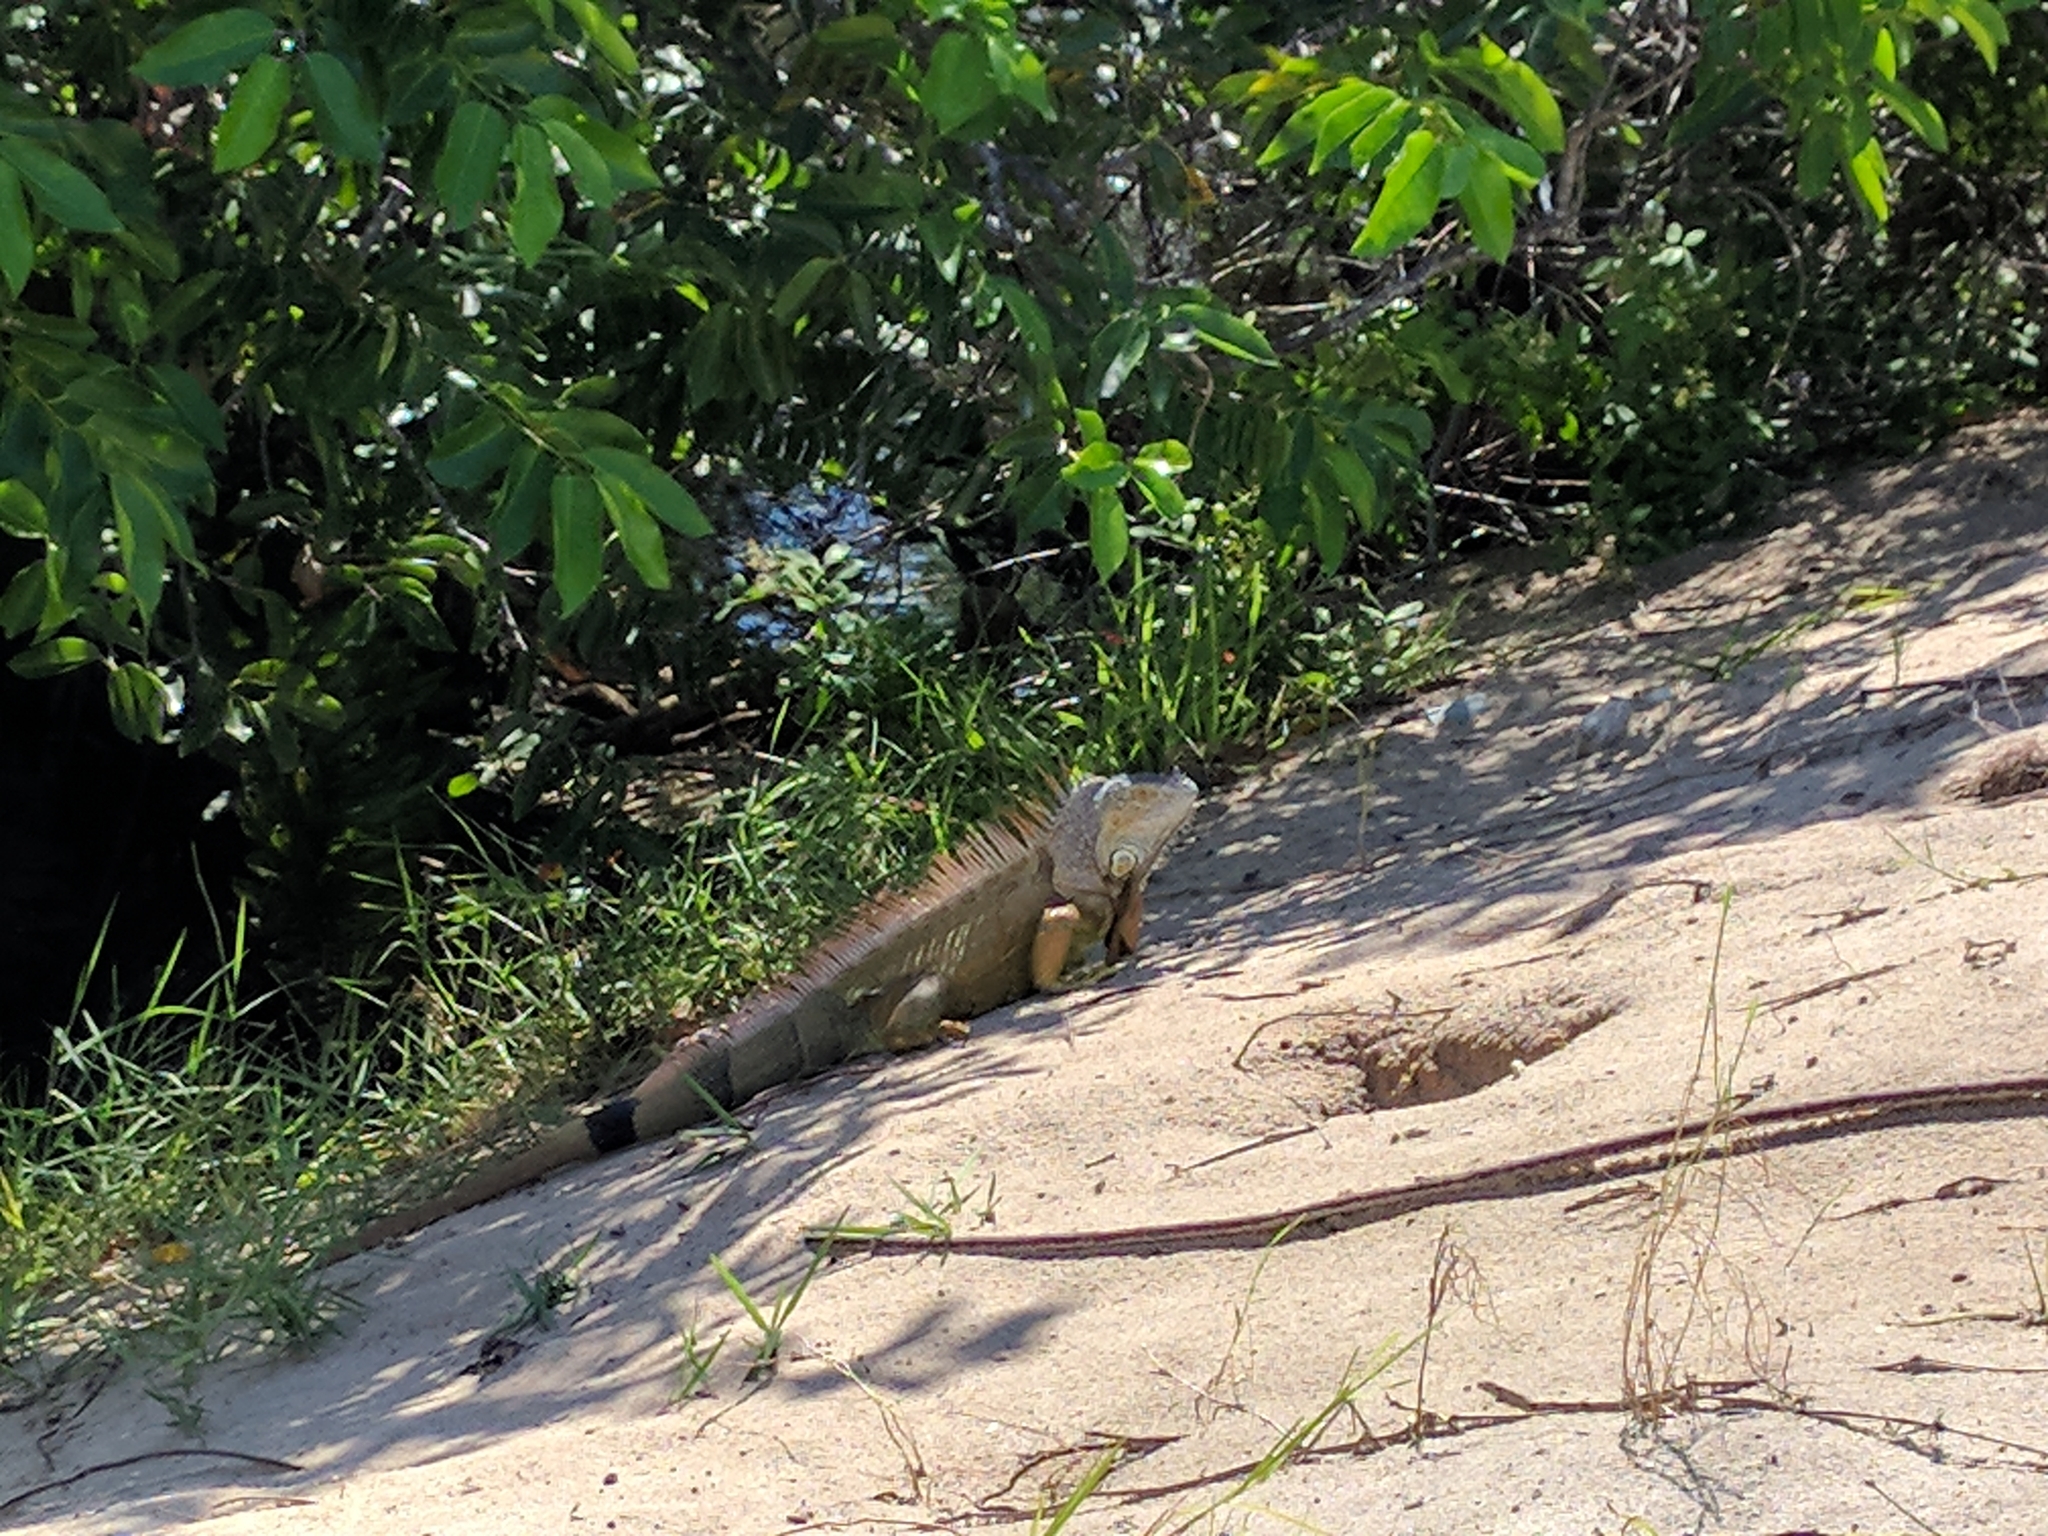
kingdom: Animalia
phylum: Chordata
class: Squamata
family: Iguanidae
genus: Iguana
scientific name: Iguana iguana
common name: Green iguana
